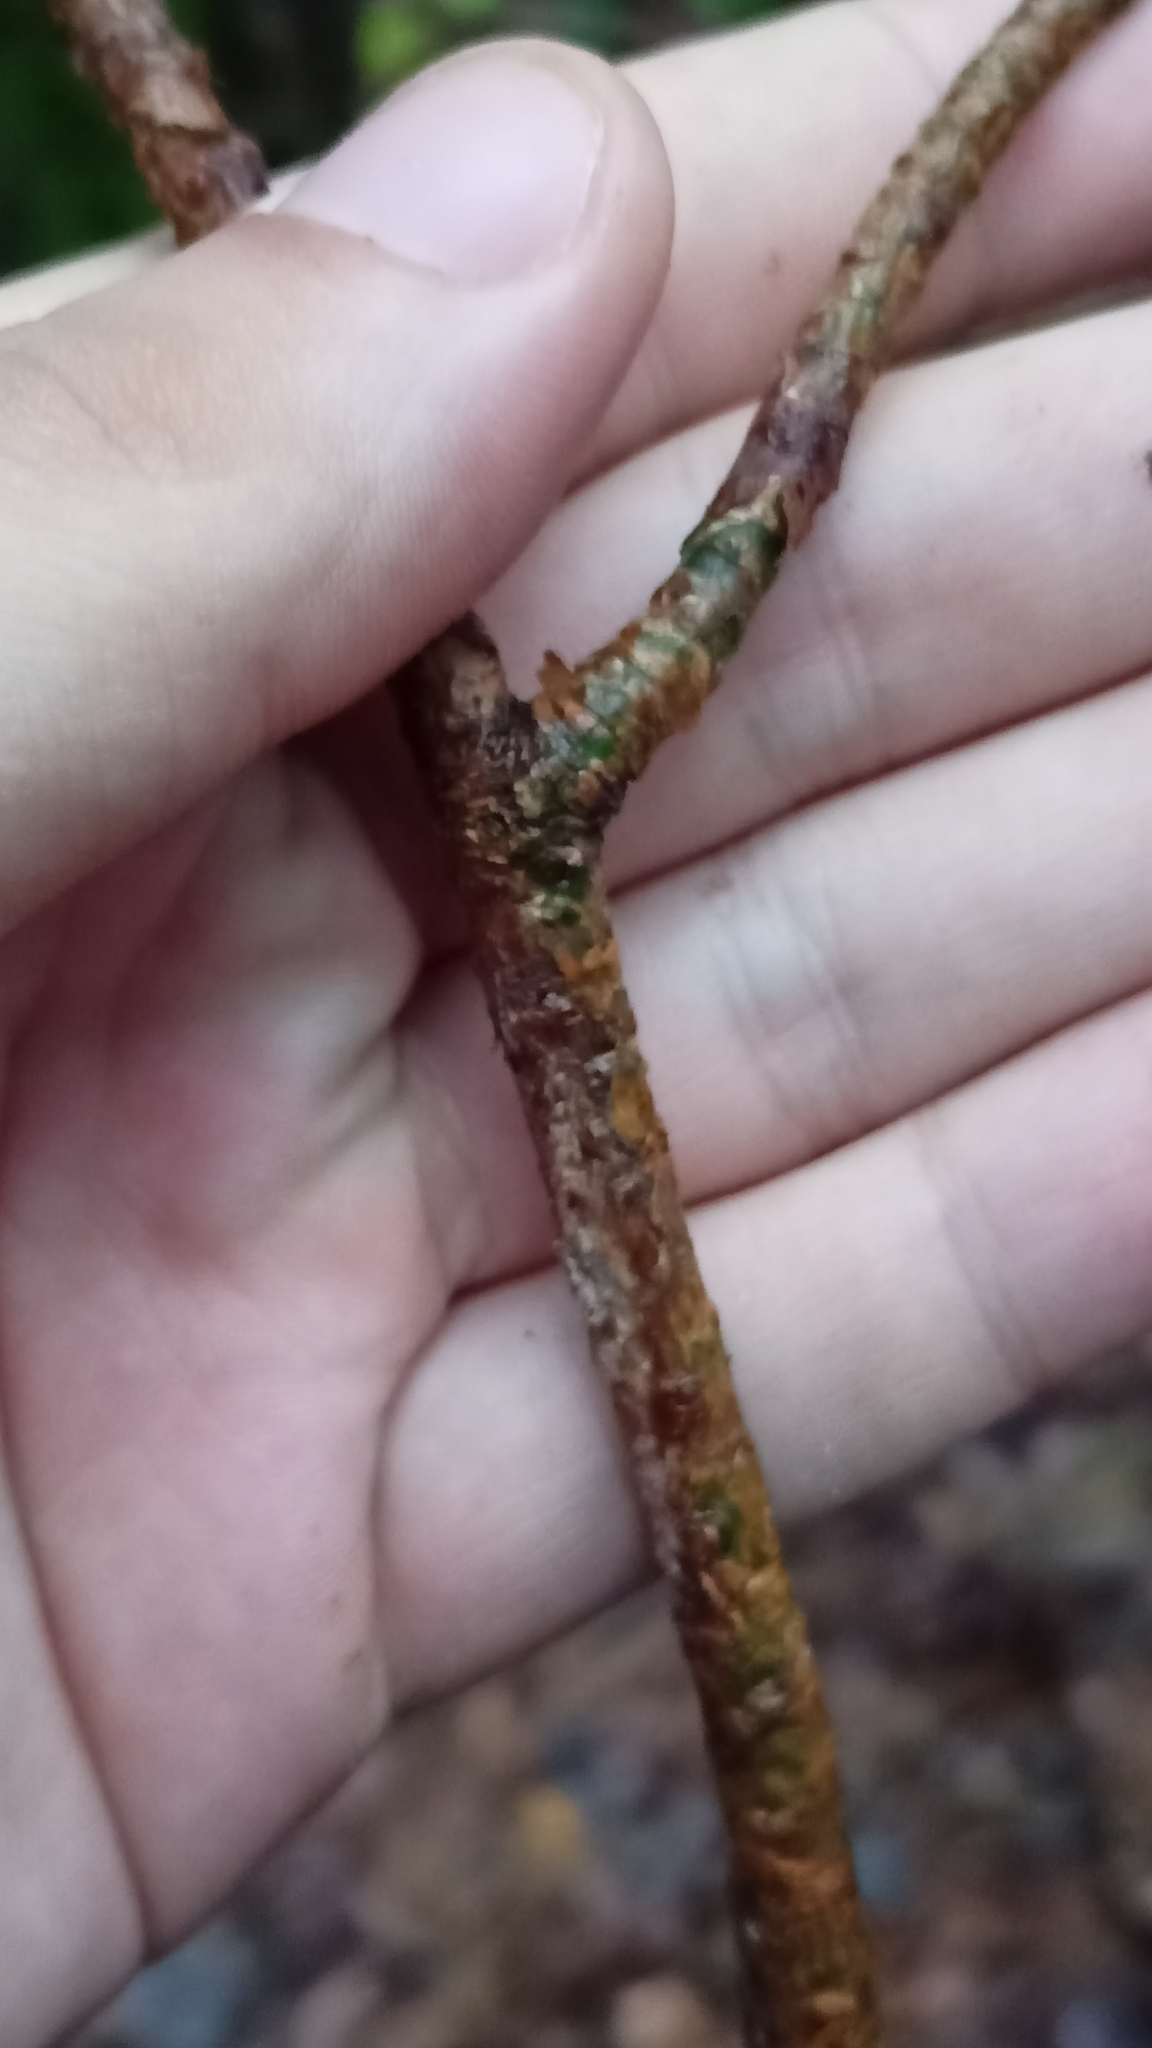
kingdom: Plantae
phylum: Tracheophyta
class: Pinopsida
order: Pinales
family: Pinaceae
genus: Pinus
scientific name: Pinus sylvestris
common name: Scots pine
